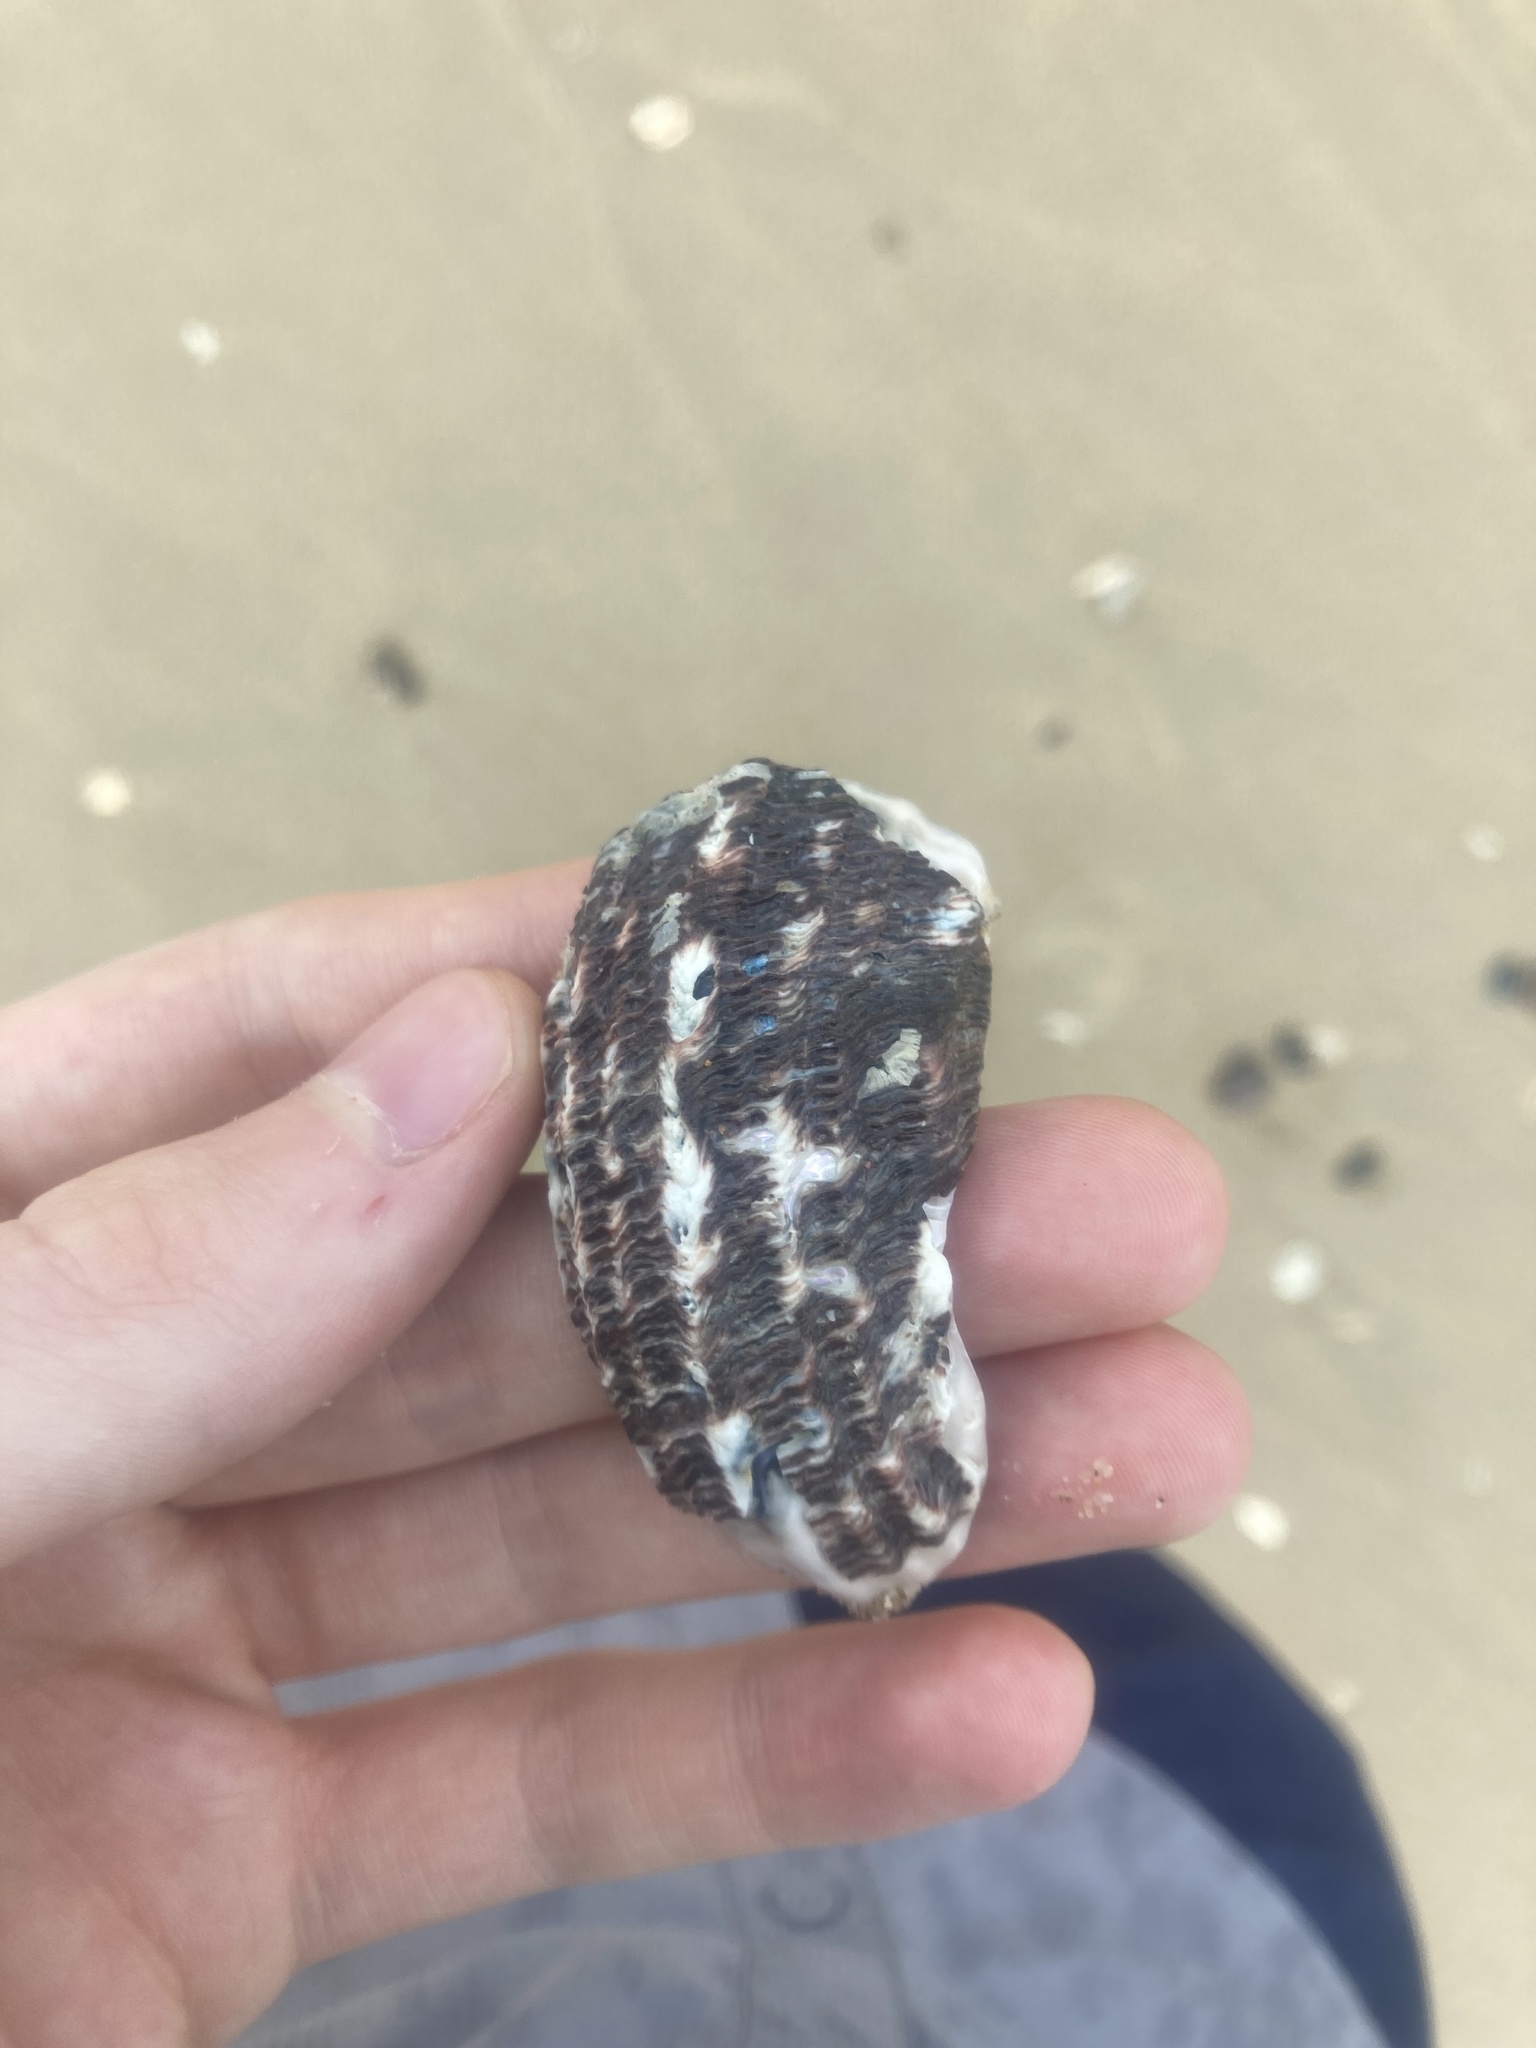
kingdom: Animalia
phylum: Mollusca
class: Gastropoda
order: Trochida
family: Turbinidae
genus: Lunella
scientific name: Lunella torquata
